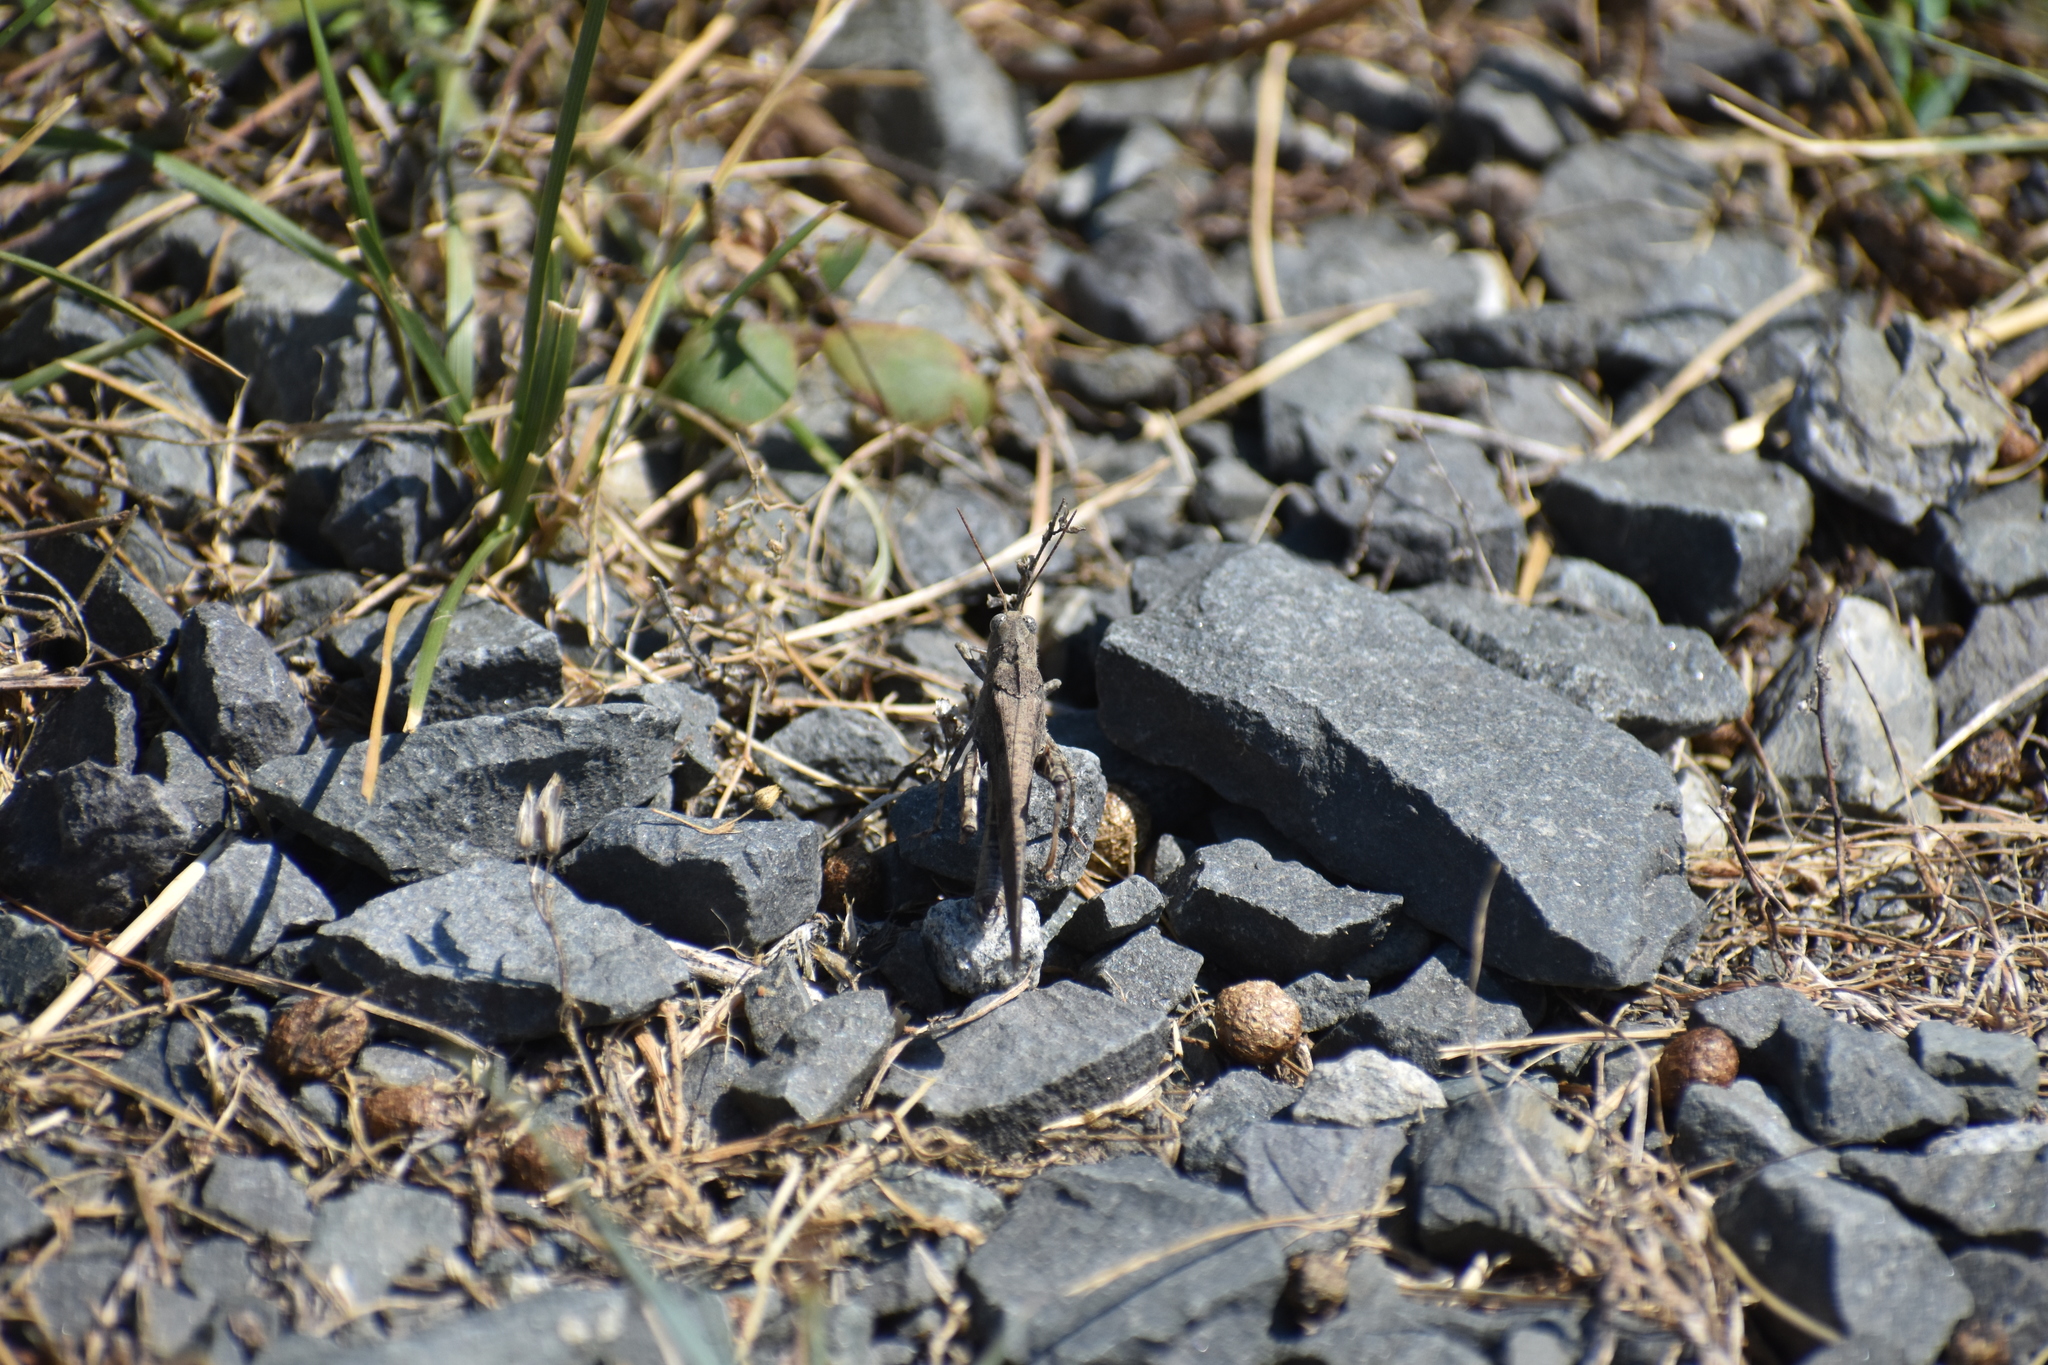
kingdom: Animalia
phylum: Arthropoda
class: Insecta
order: Orthoptera
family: Acrididae
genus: Dissosteira
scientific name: Dissosteira carolina
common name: Carolina grasshopper
